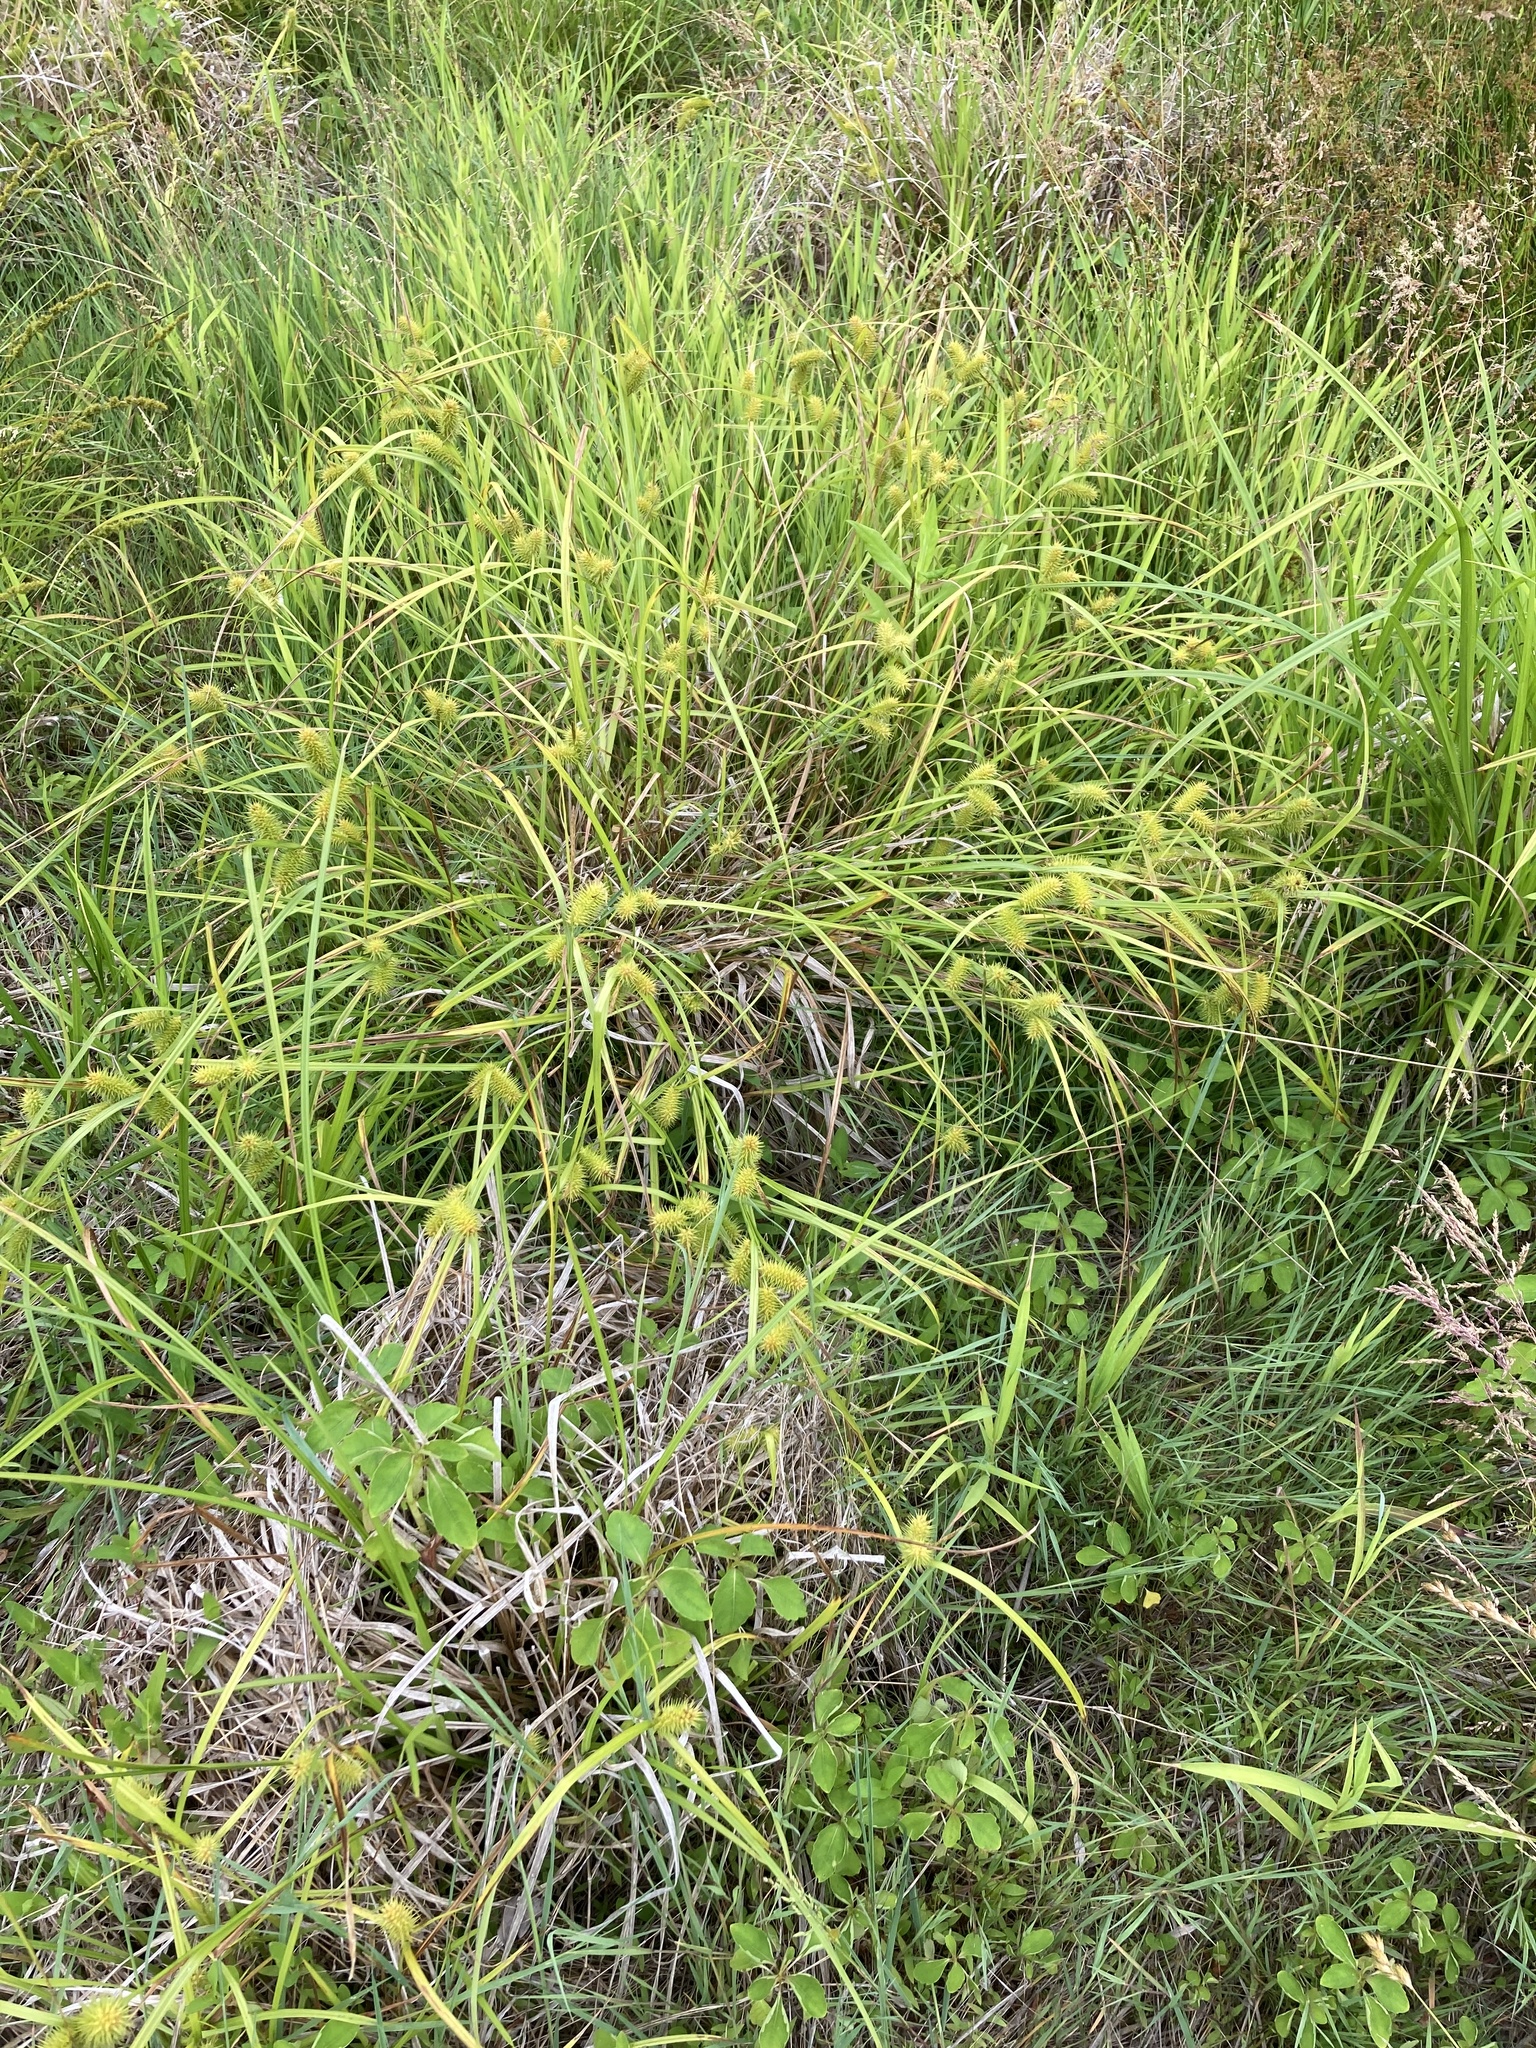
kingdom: Plantae
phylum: Tracheophyta
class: Liliopsida
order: Poales
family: Cyperaceae
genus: Carex
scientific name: Carex lurida
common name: Sallow sedge
